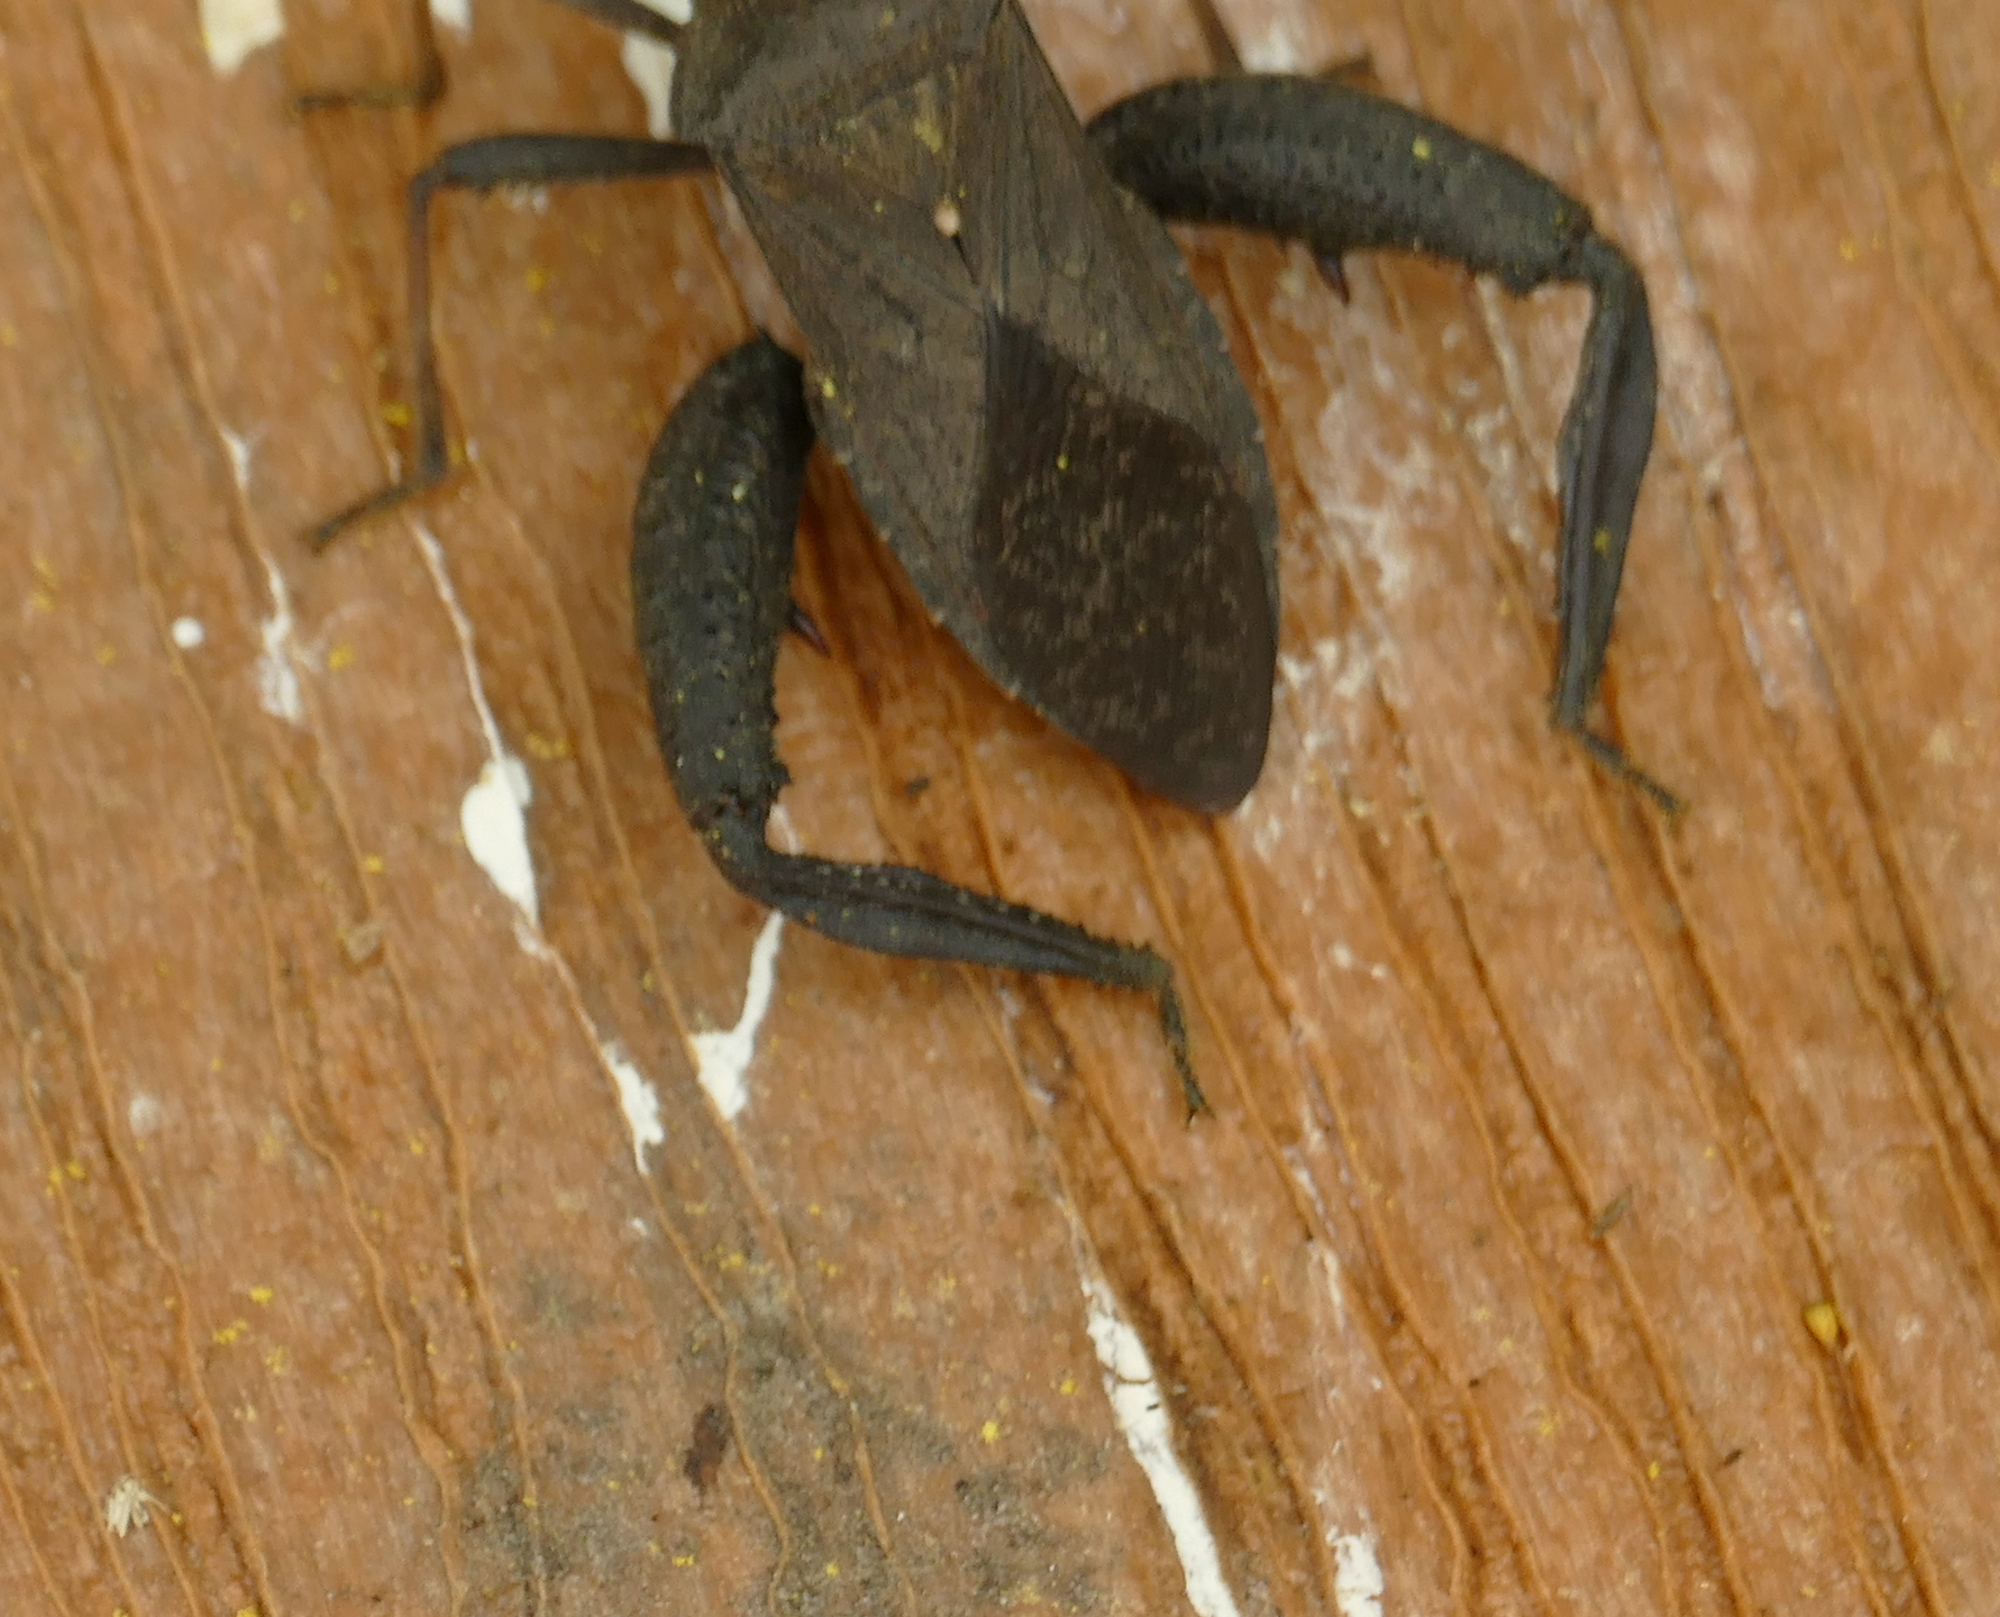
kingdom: Animalia
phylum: Arthropoda
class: Insecta
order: Hemiptera
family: Coreidae
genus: Acanthocephala
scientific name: Acanthocephala femorata
